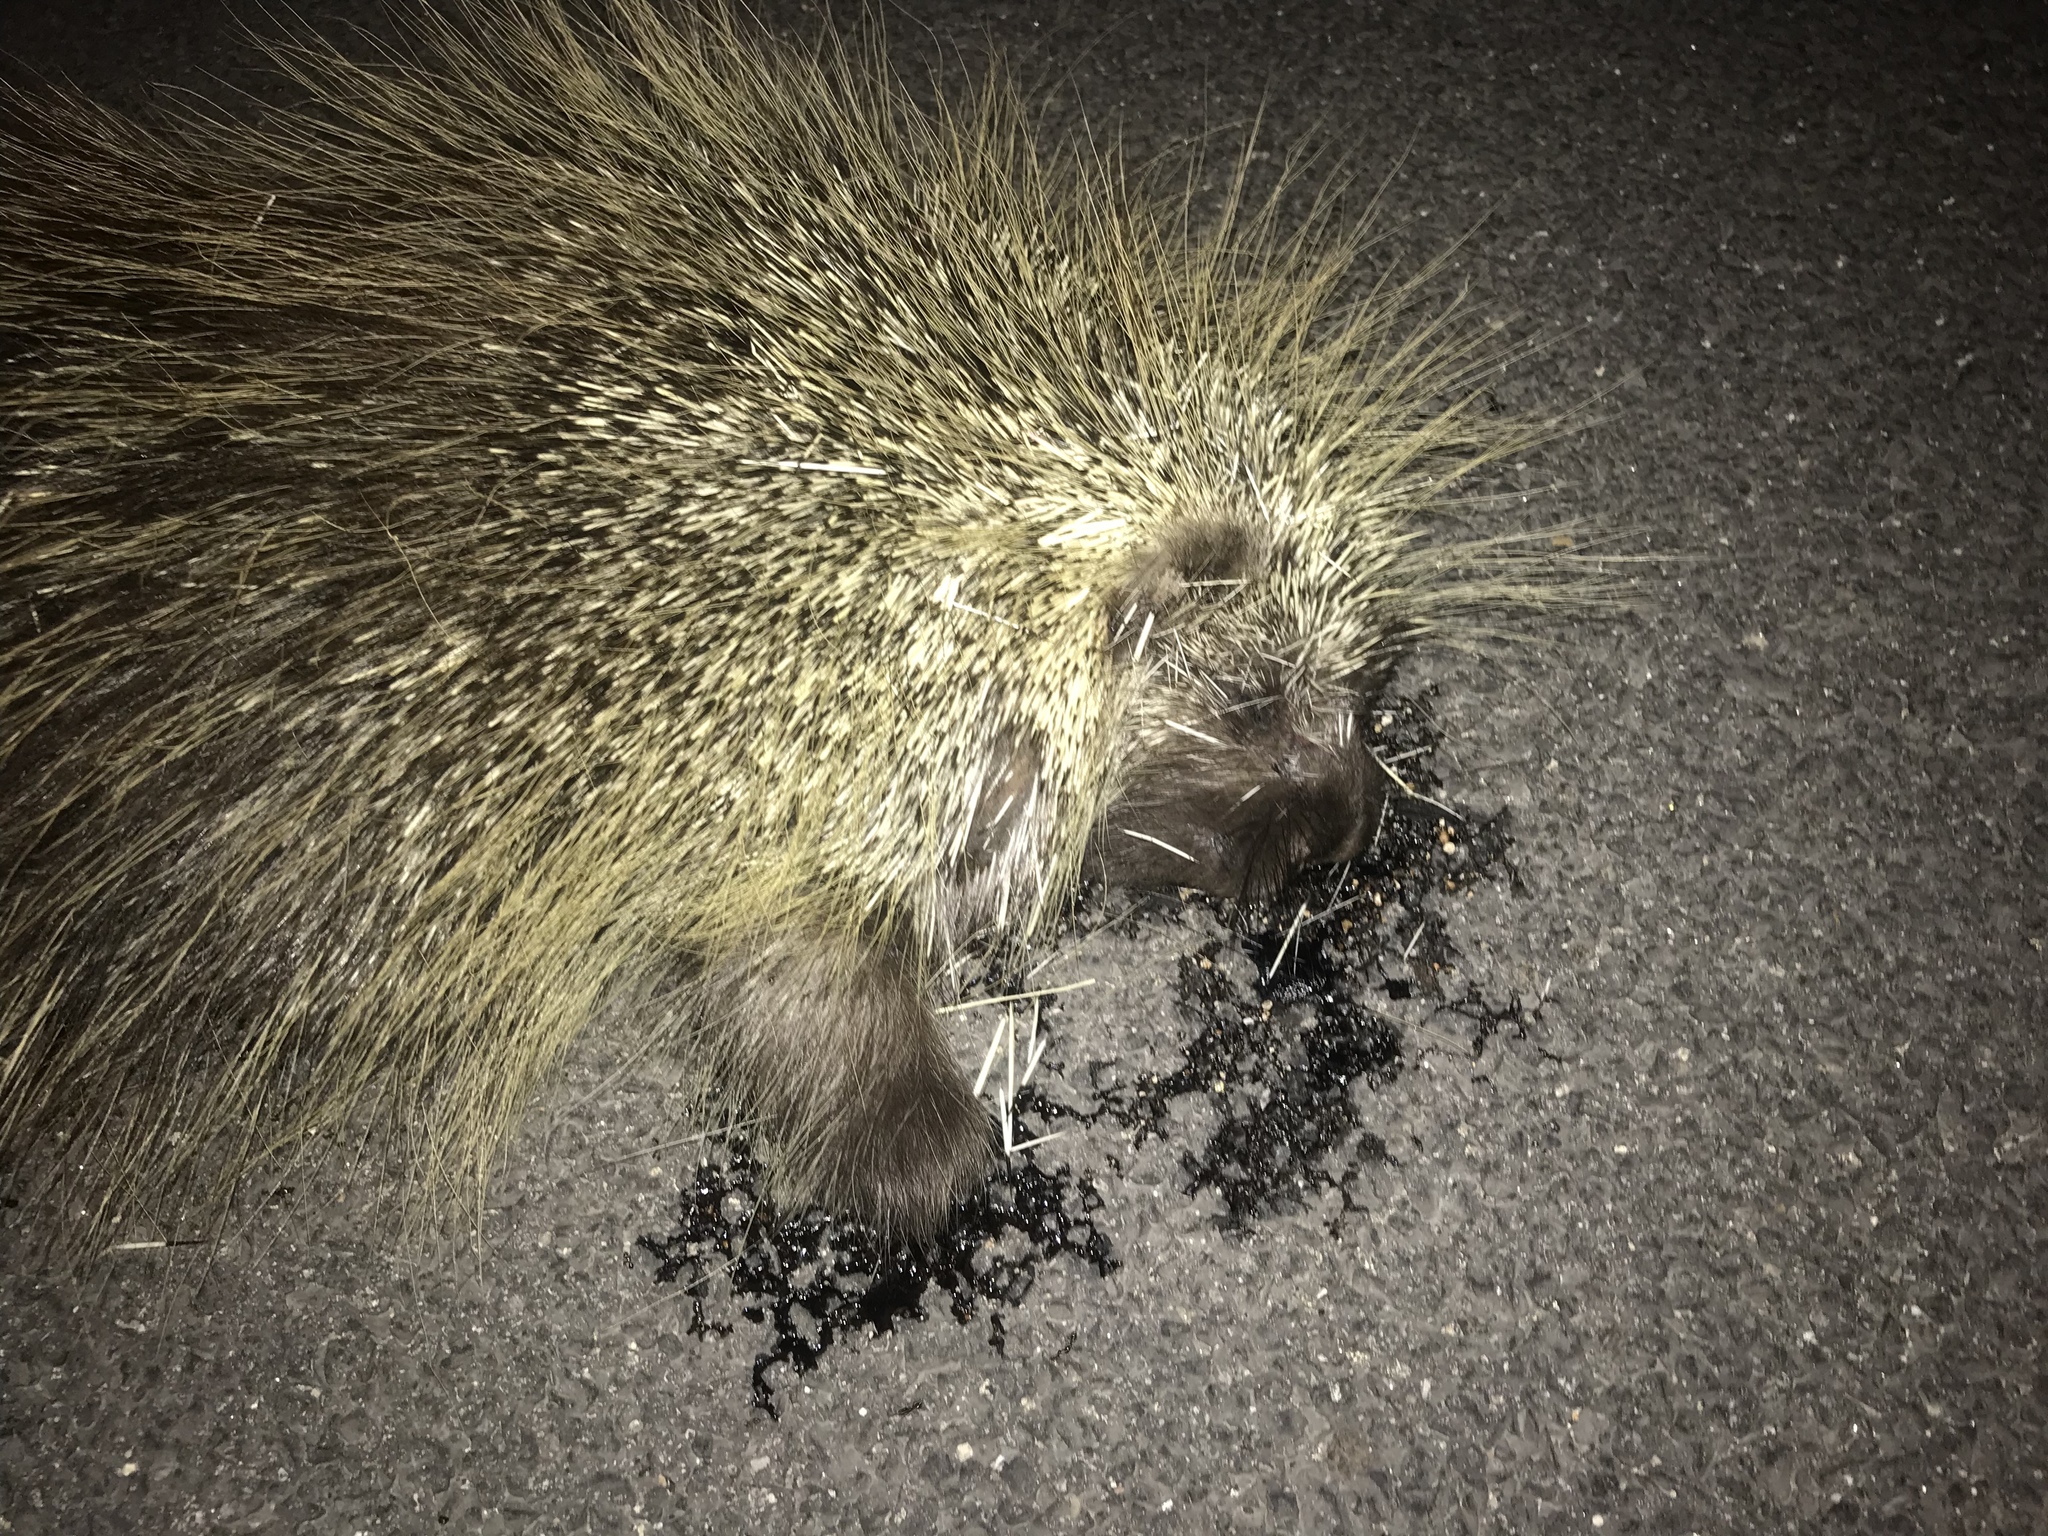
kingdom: Animalia
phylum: Chordata
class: Mammalia
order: Rodentia
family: Erethizontidae
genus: Erethizon
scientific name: Erethizon dorsatus
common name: North american porcupine
